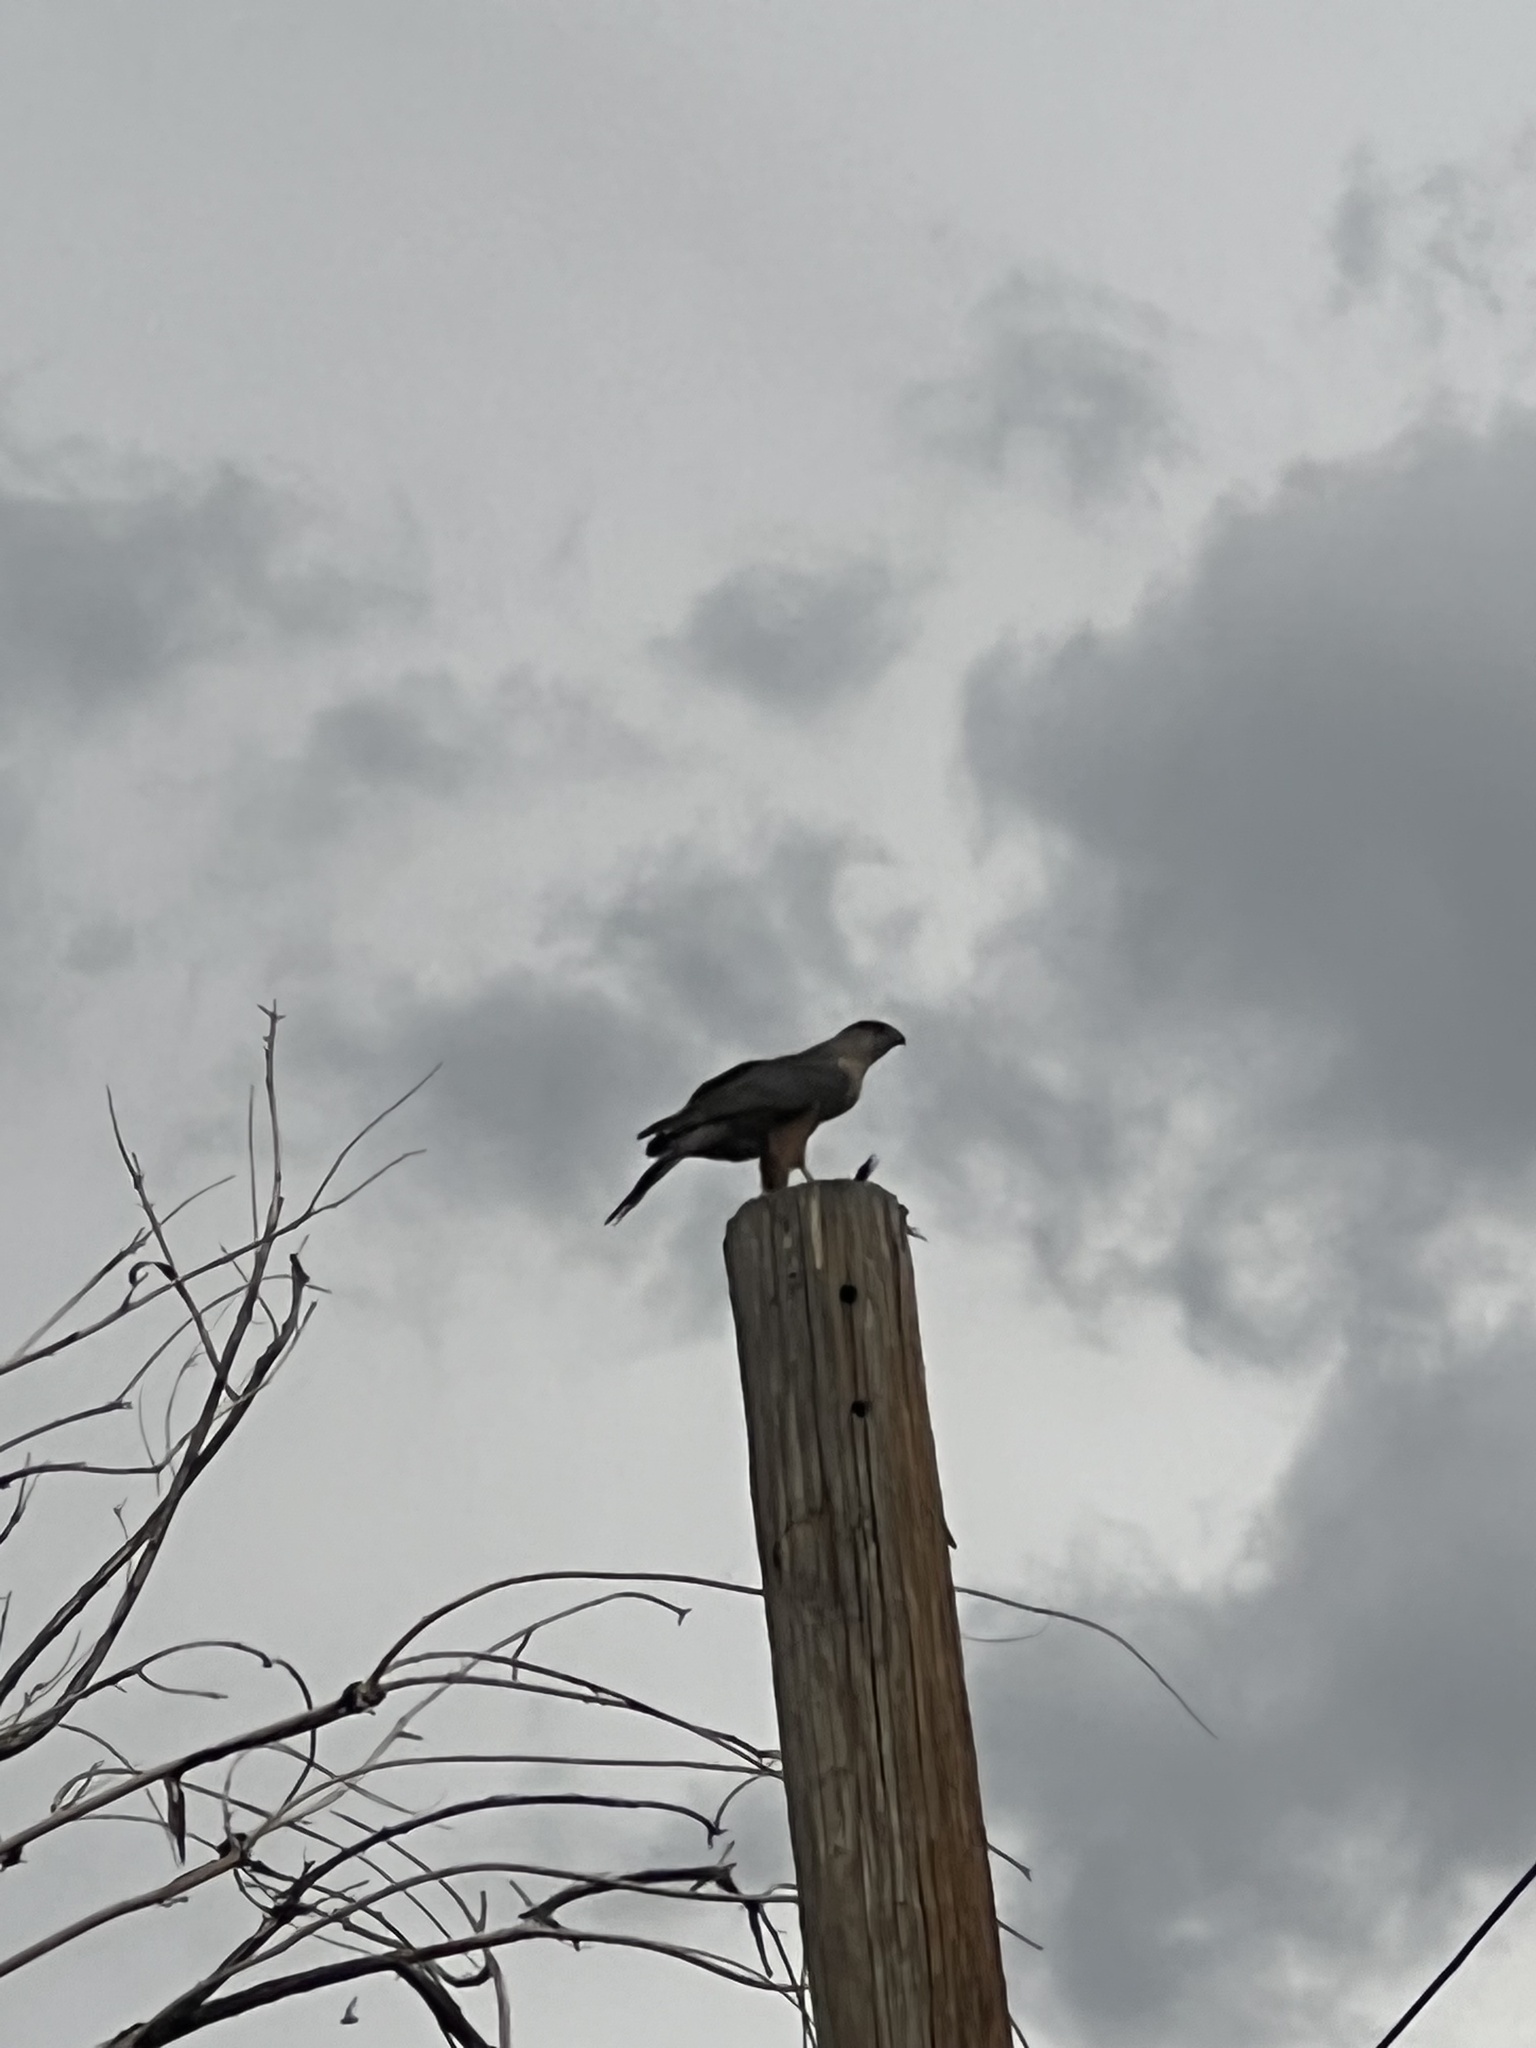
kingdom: Animalia
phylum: Chordata
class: Aves
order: Accipitriformes
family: Accipitridae
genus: Accipiter
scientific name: Accipiter cooperii
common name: Cooper's hawk
